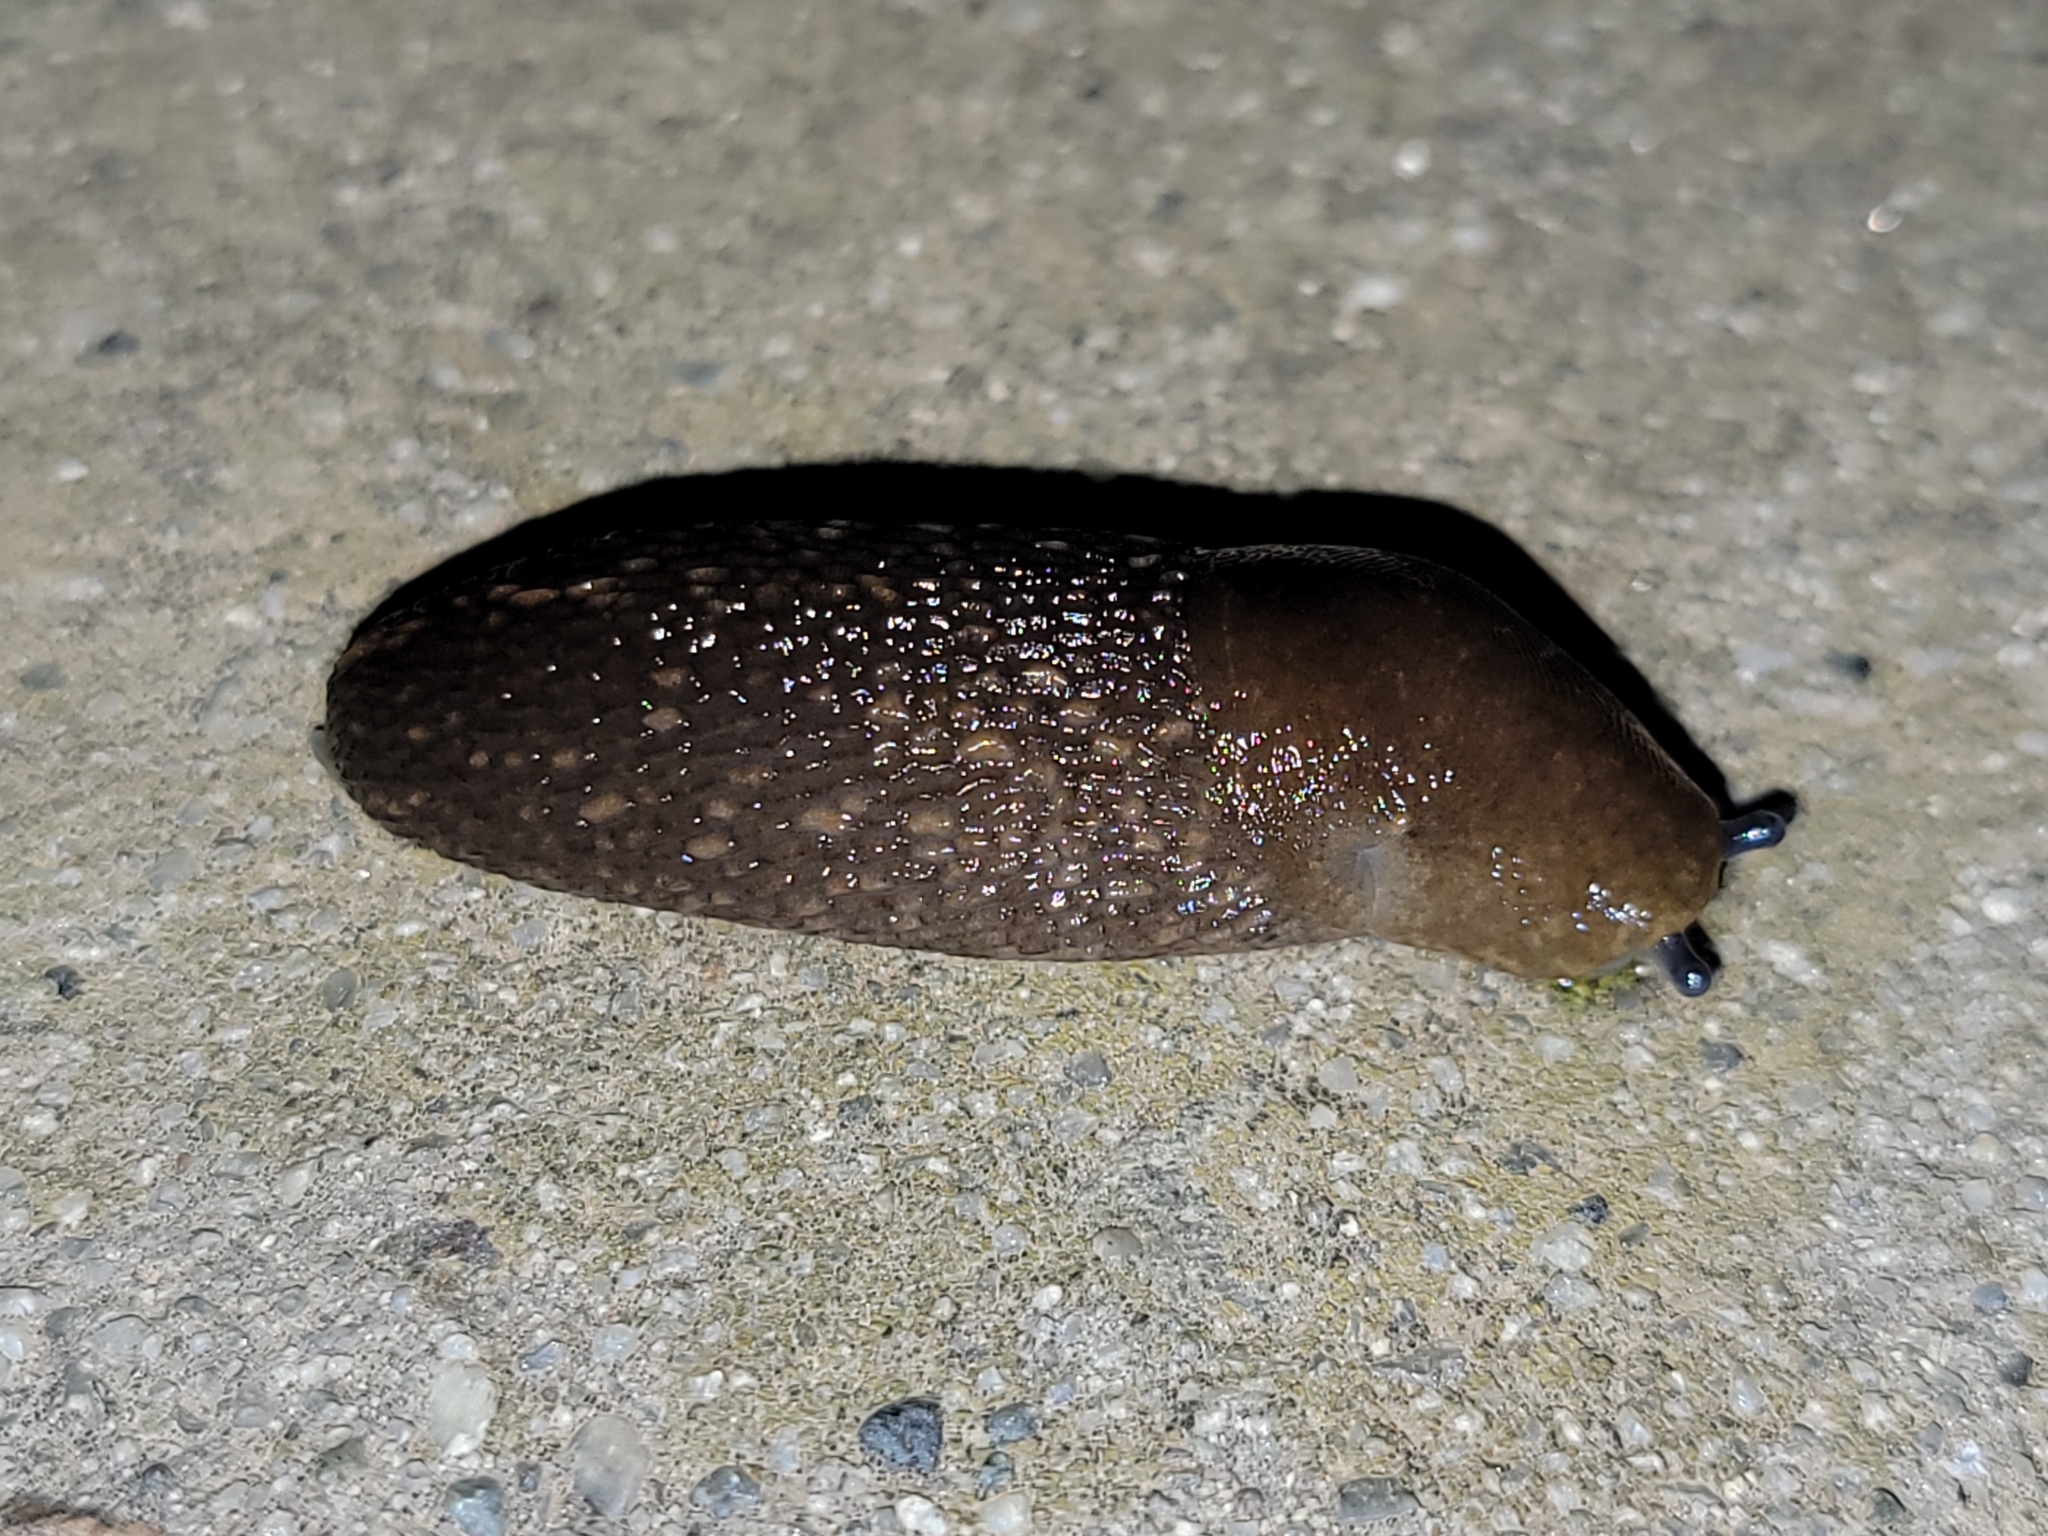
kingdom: Animalia
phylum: Mollusca
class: Gastropoda
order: Stylommatophora
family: Limacidae
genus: Limacus
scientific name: Limacus flavus
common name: Yellow gardenslug
